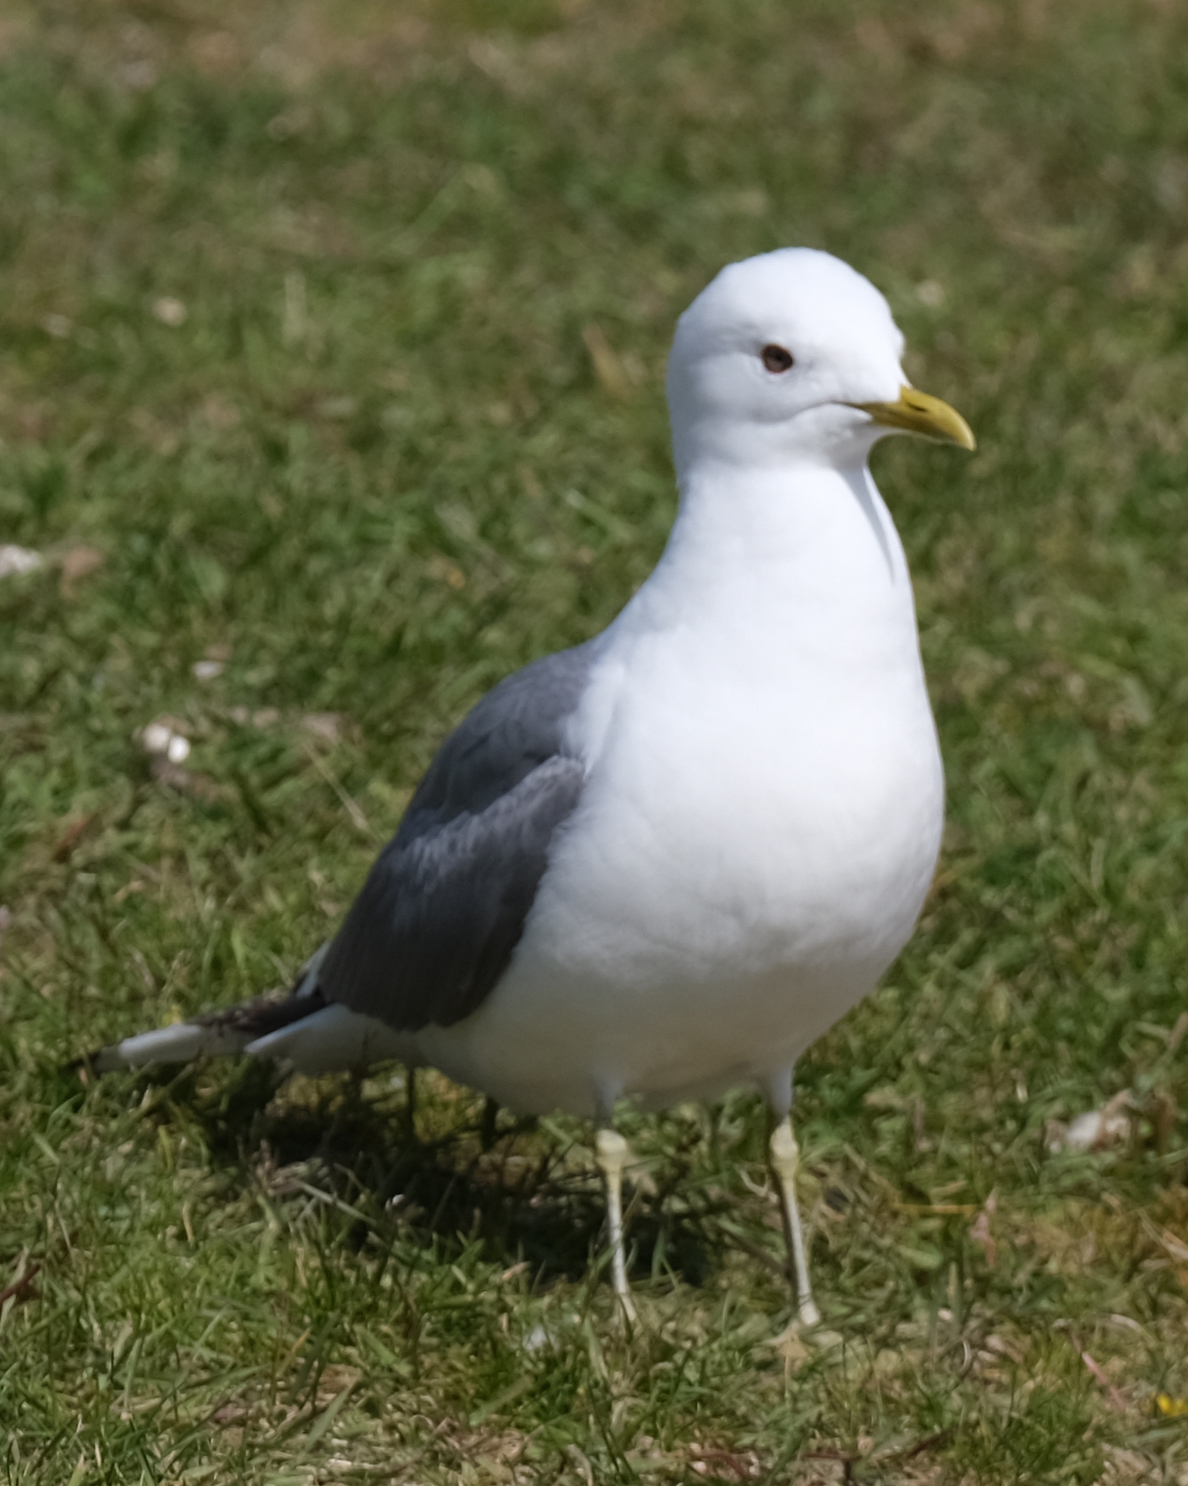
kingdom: Animalia
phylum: Chordata
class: Aves
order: Charadriiformes
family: Laridae
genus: Larus
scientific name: Larus brachyrhynchus
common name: Short-billed gull
